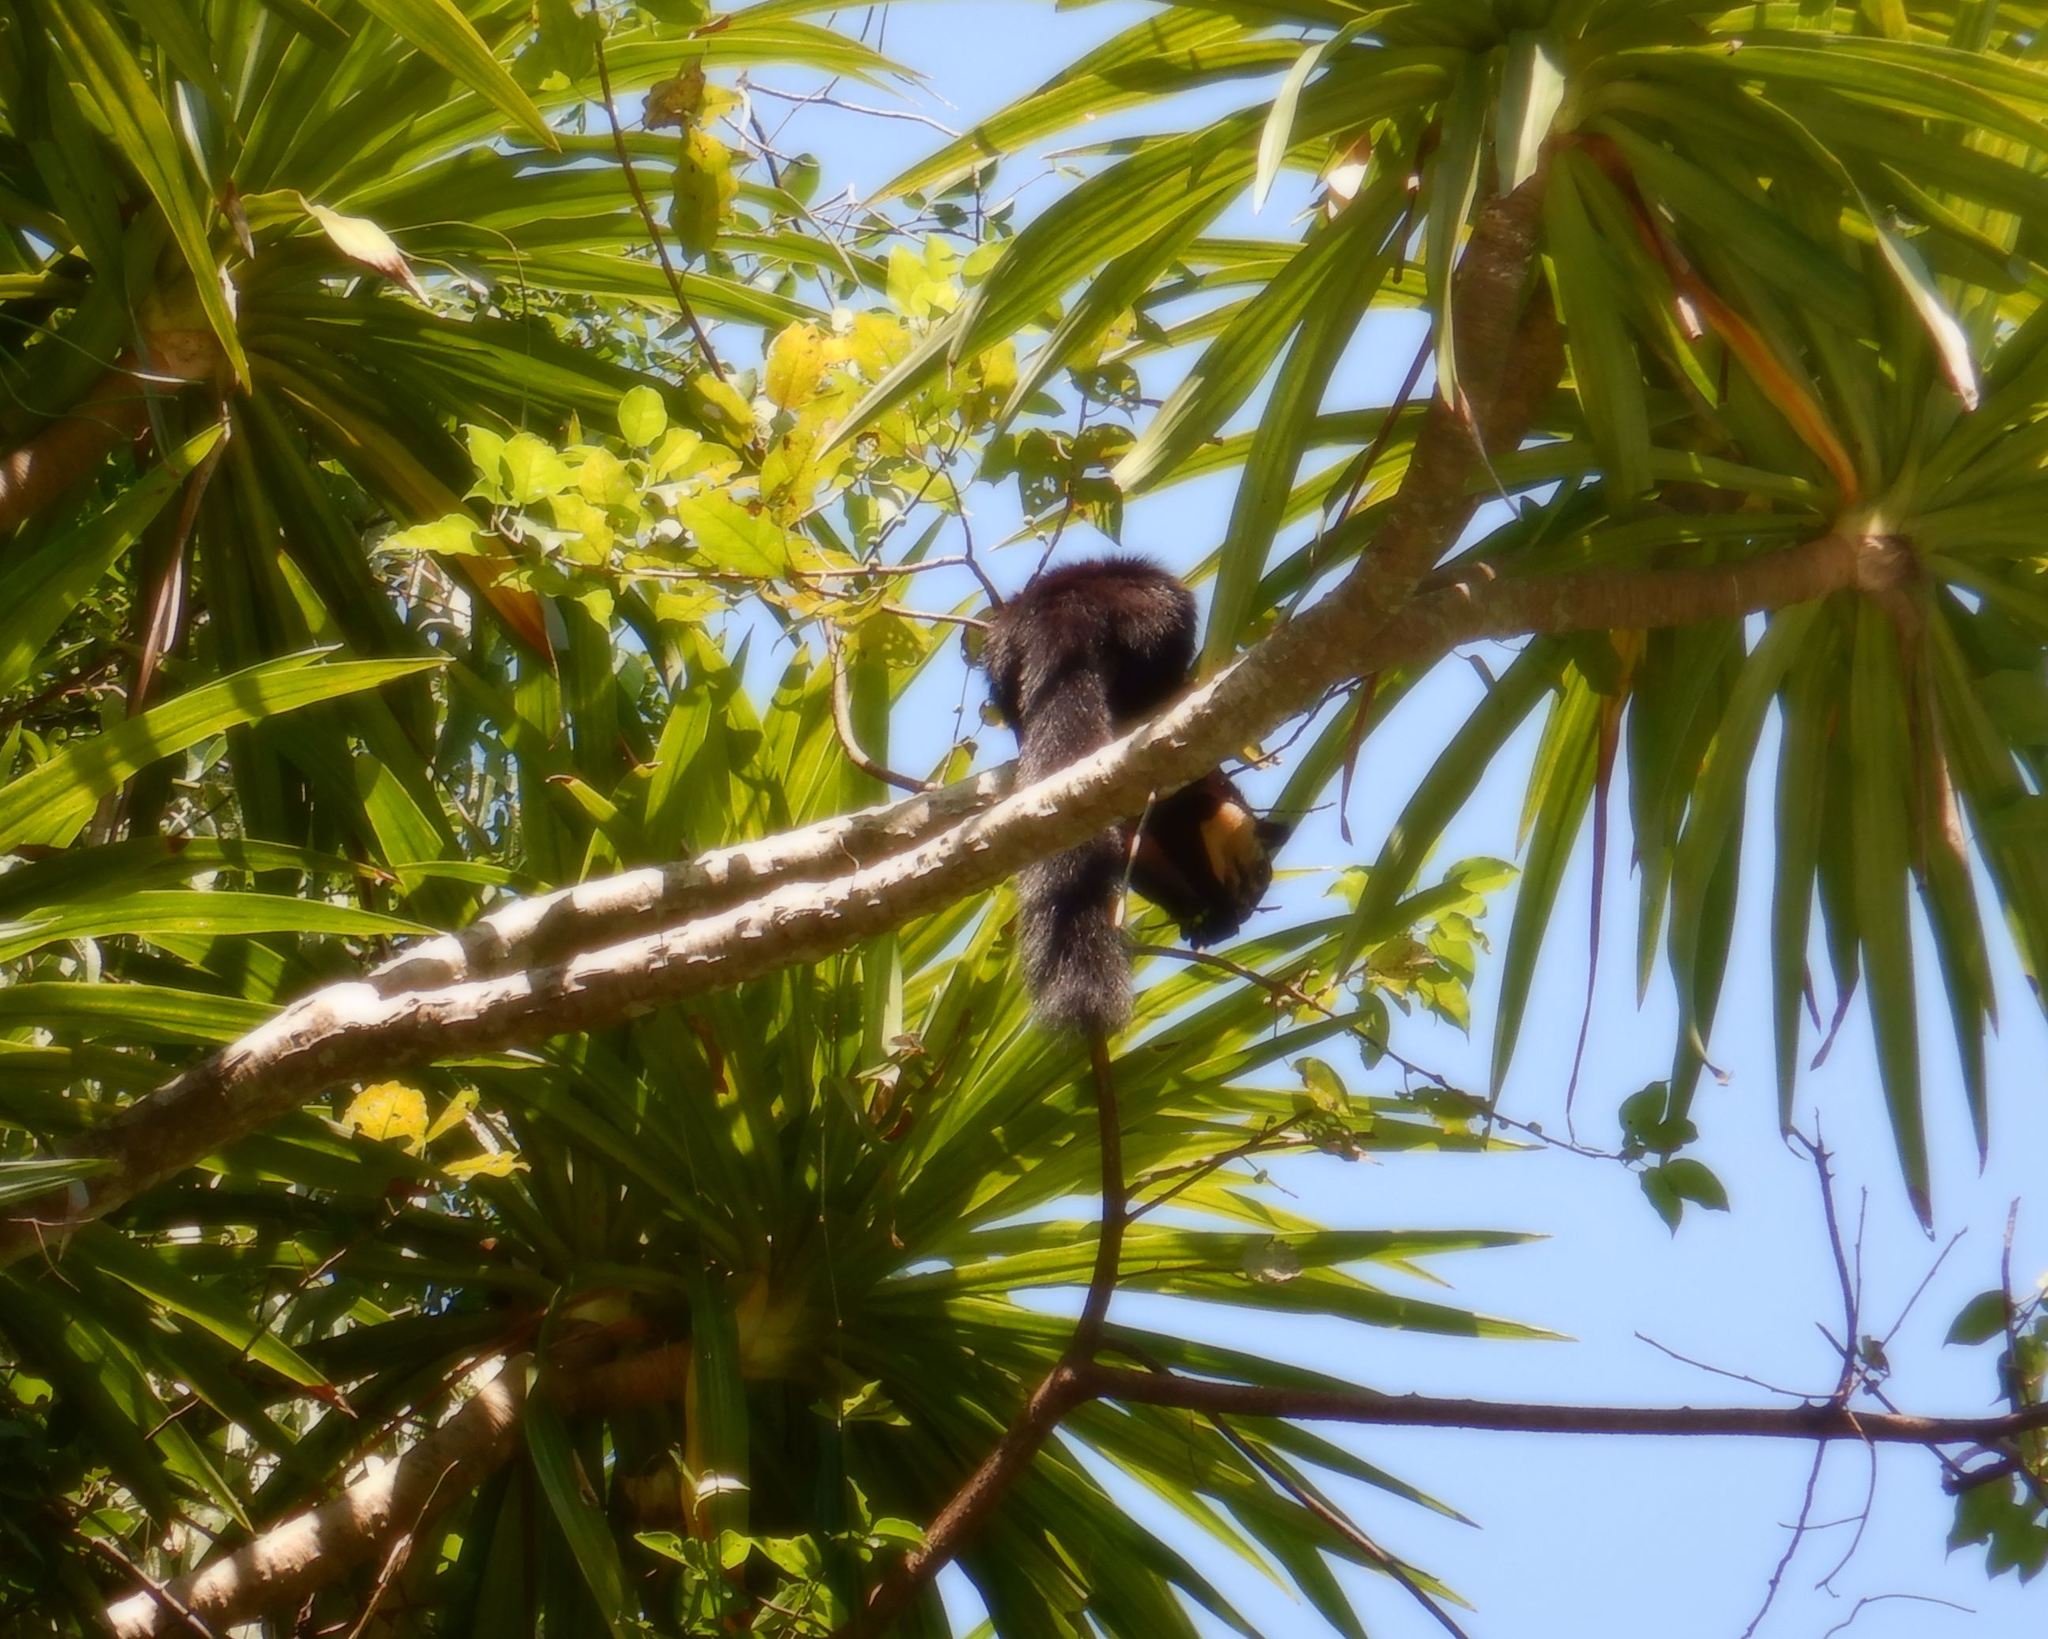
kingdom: Animalia
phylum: Chordata
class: Mammalia
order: Rodentia
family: Sciuridae
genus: Ratufa
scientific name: Ratufa bicolor
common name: Black giant squirrel
